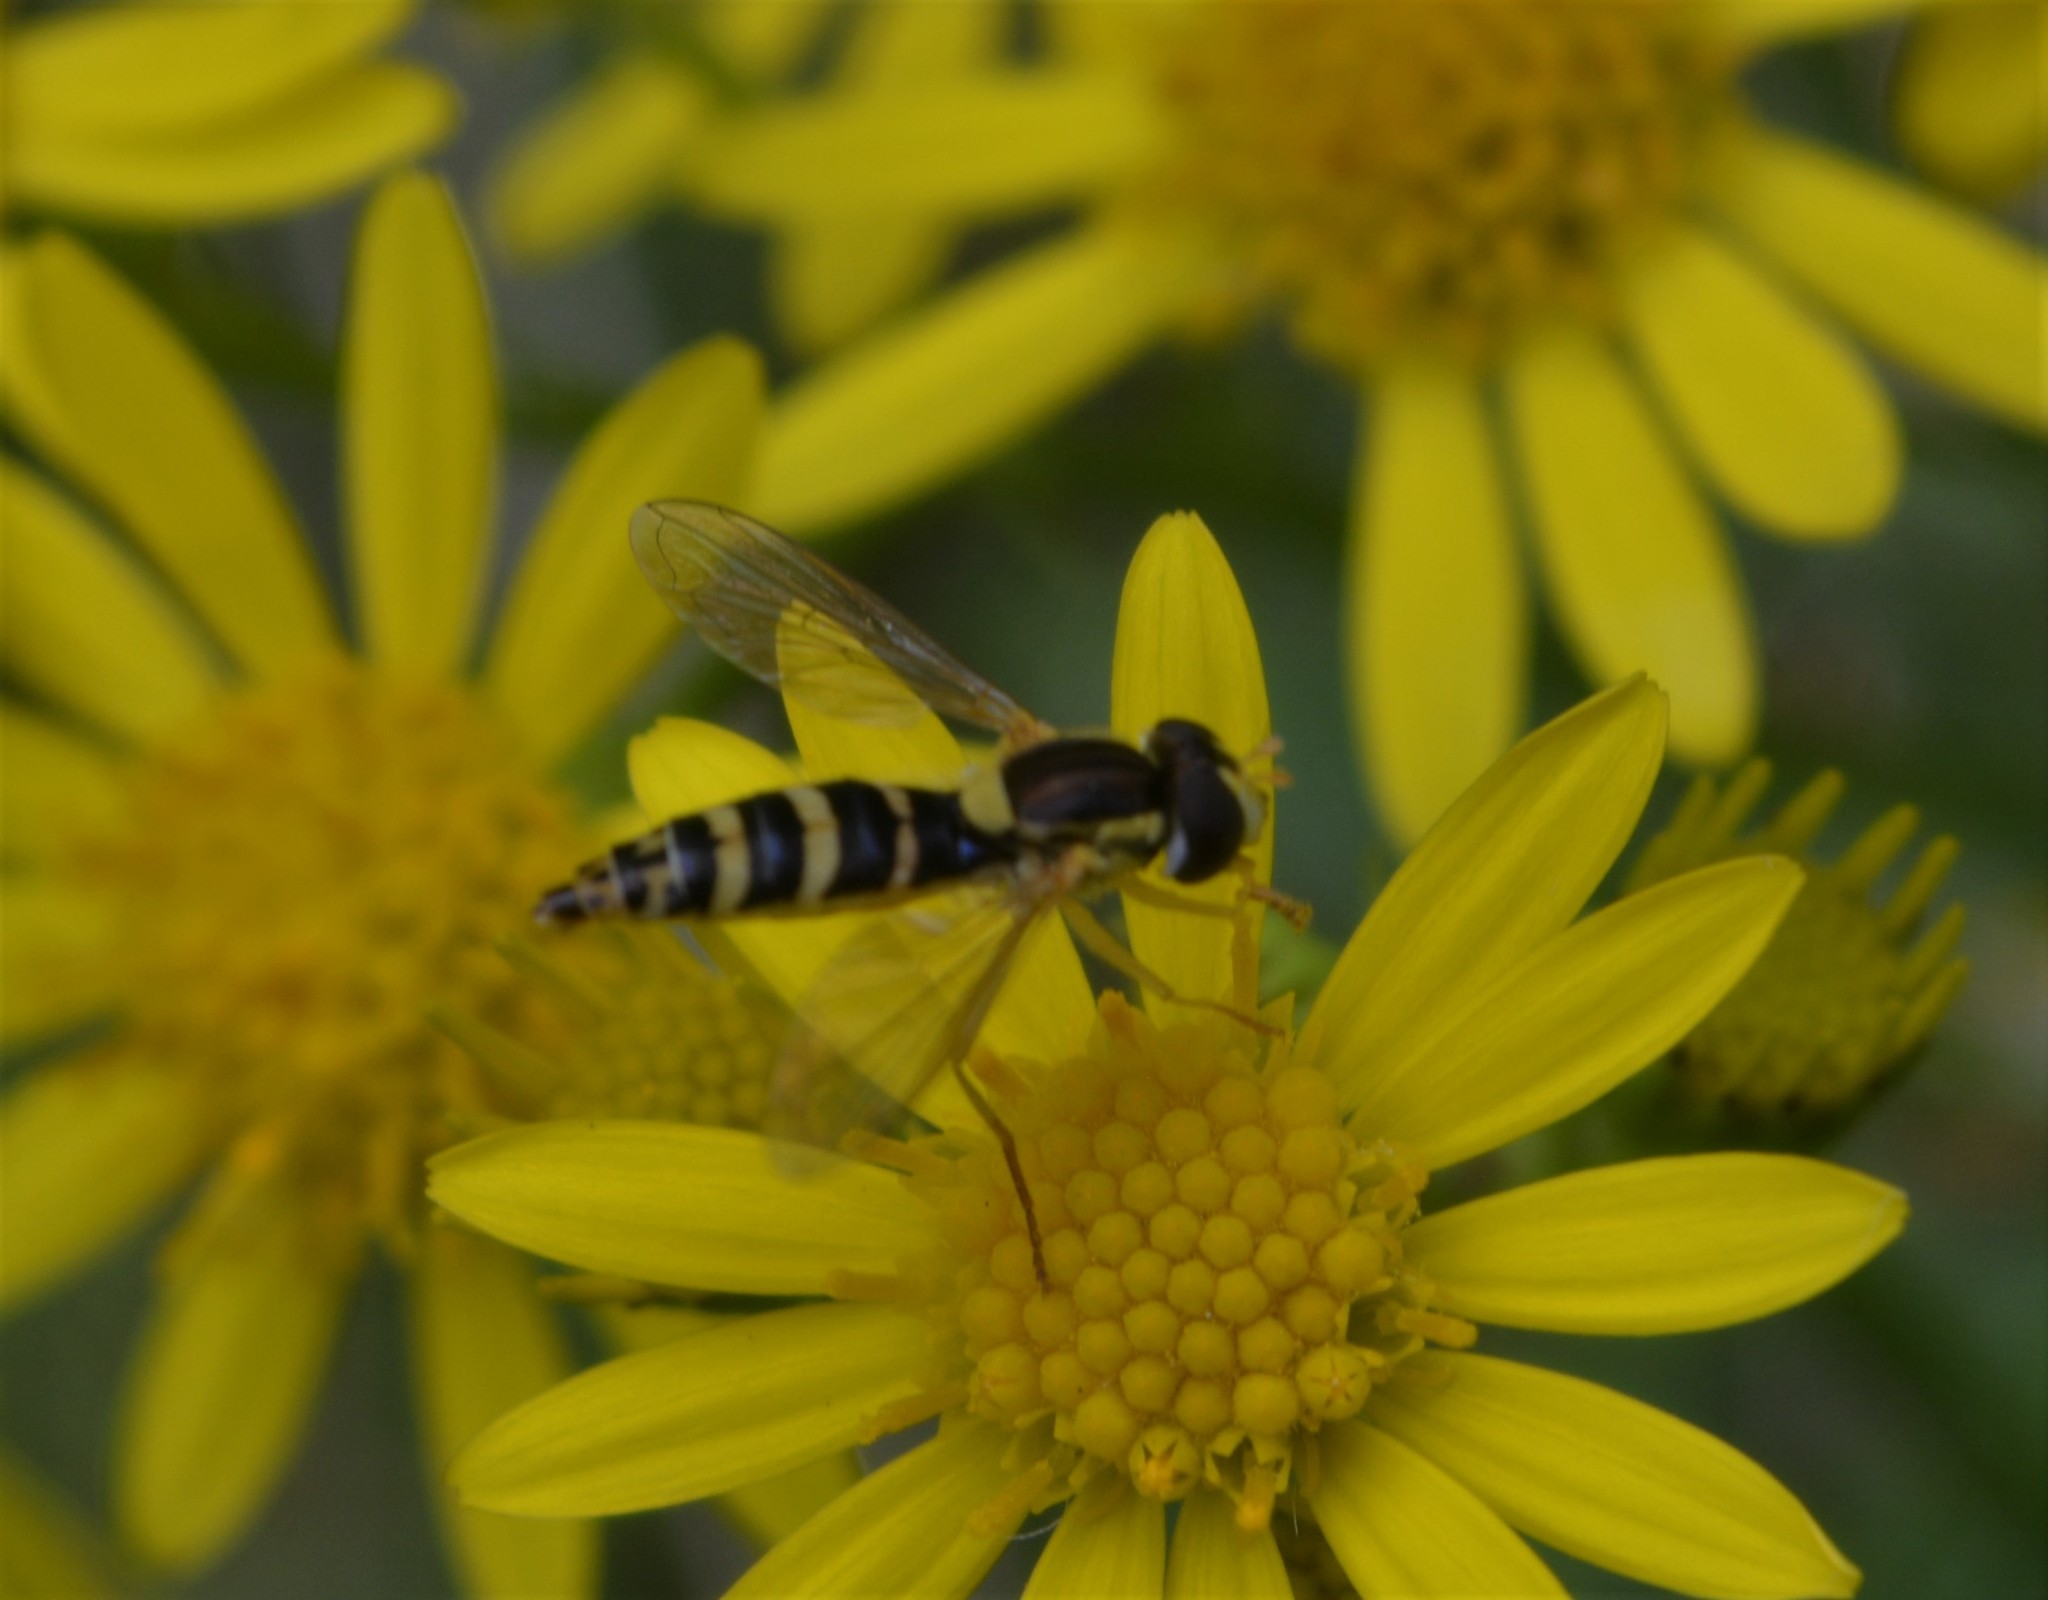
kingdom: Animalia
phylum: Arthropoda
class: Insecta
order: Diptera
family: Syrphidae
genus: Sphaerophoria
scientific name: Sphaerophoria
